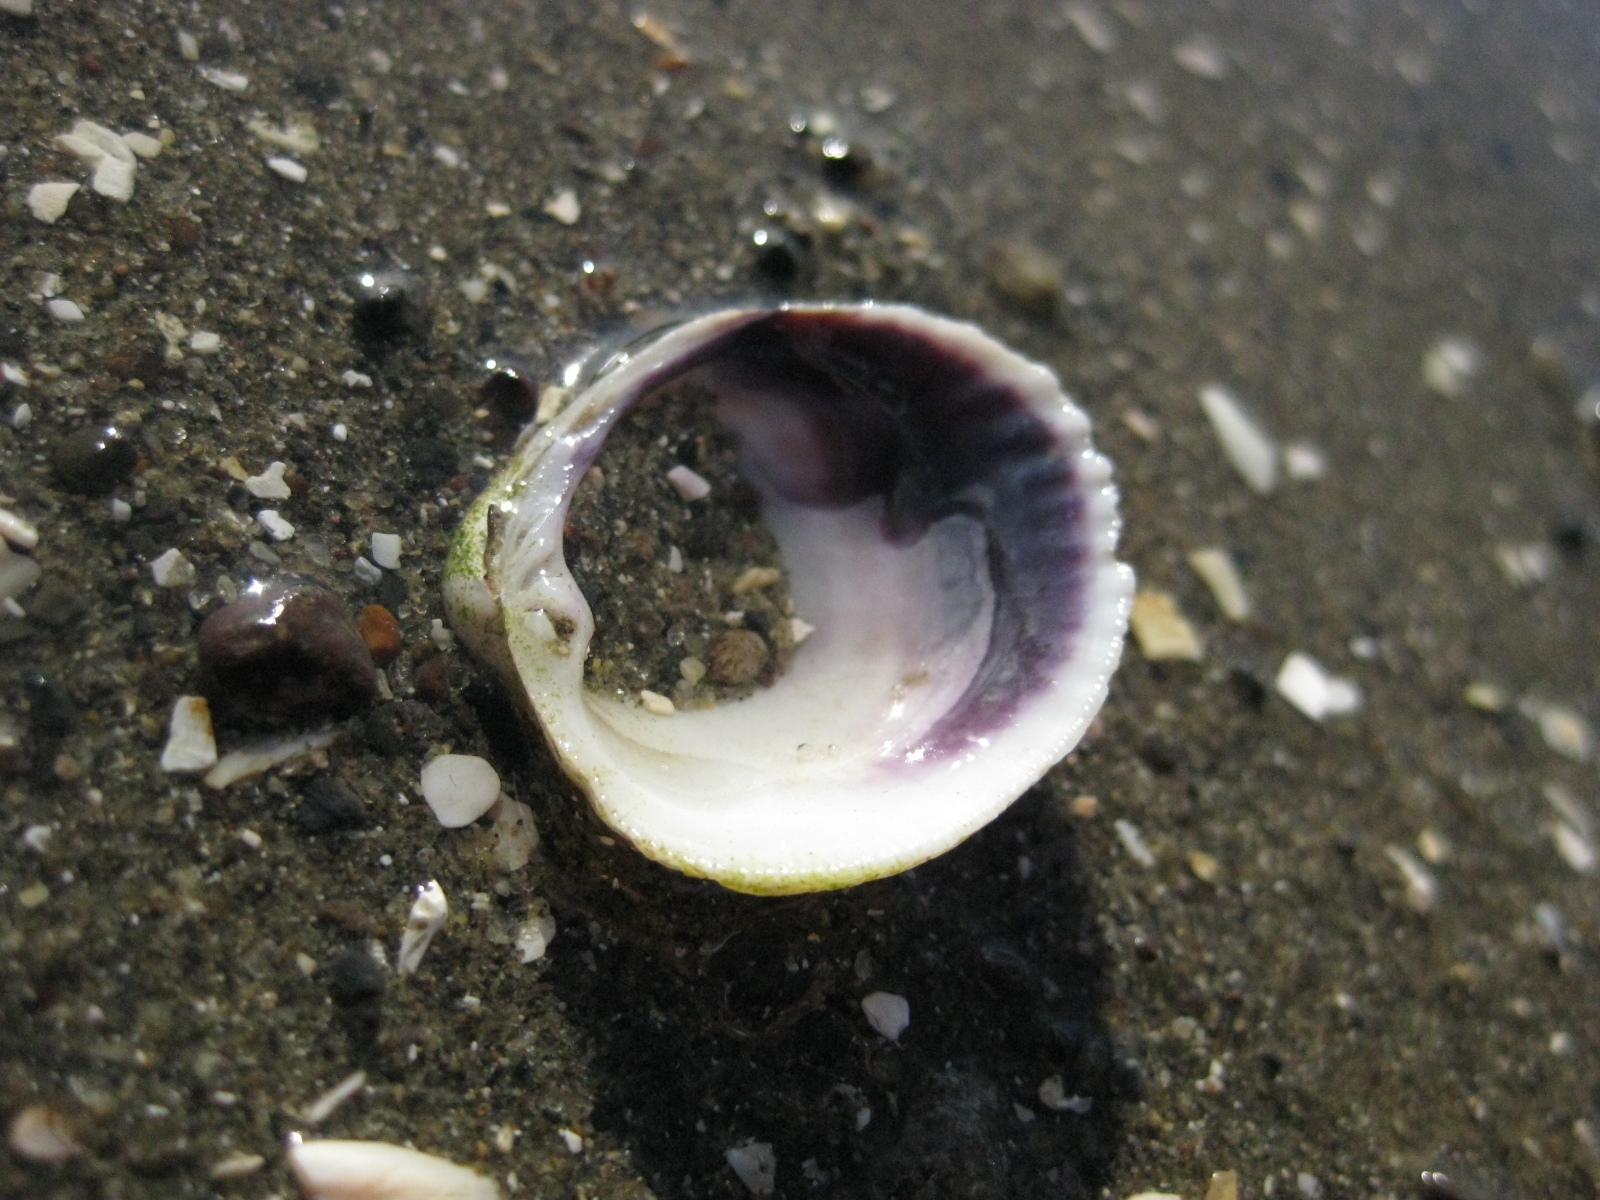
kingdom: Animalia
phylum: Mollusca
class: Bivalvia
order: Venerida
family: Veneridae
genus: Austrovenus
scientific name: Austrovenus stutchburyi
